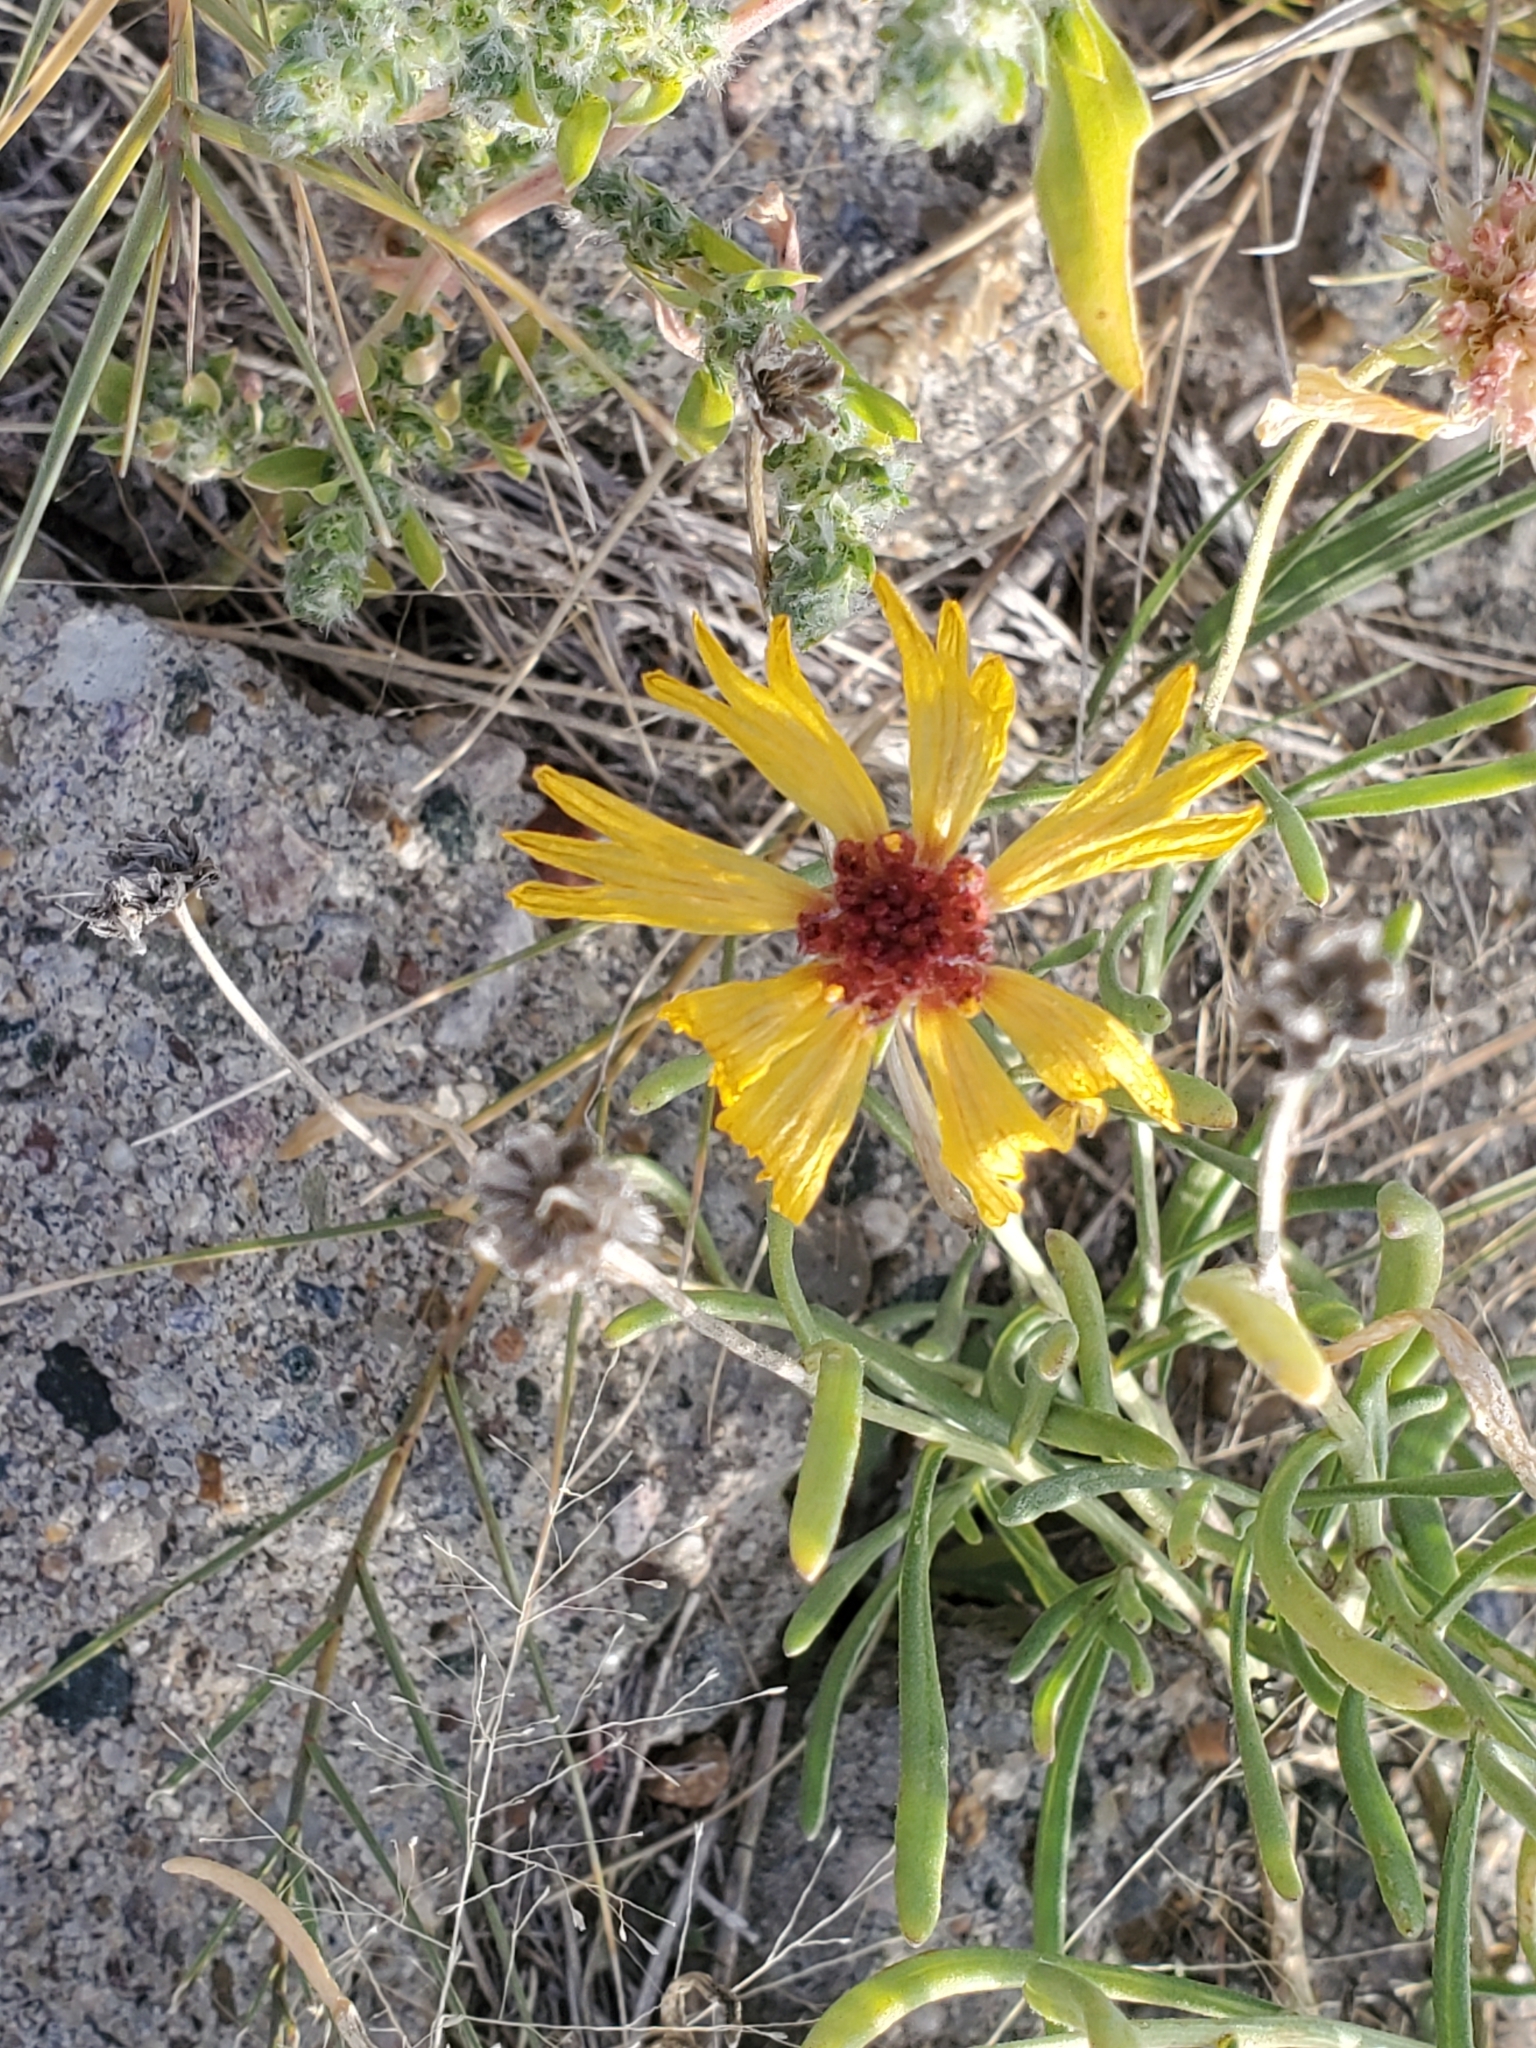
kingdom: Plantae
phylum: Tracheophyta
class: Magnoliopsida
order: Asterales
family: Asteraceae
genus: Gaillardia
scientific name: Gaillardia multiceps
